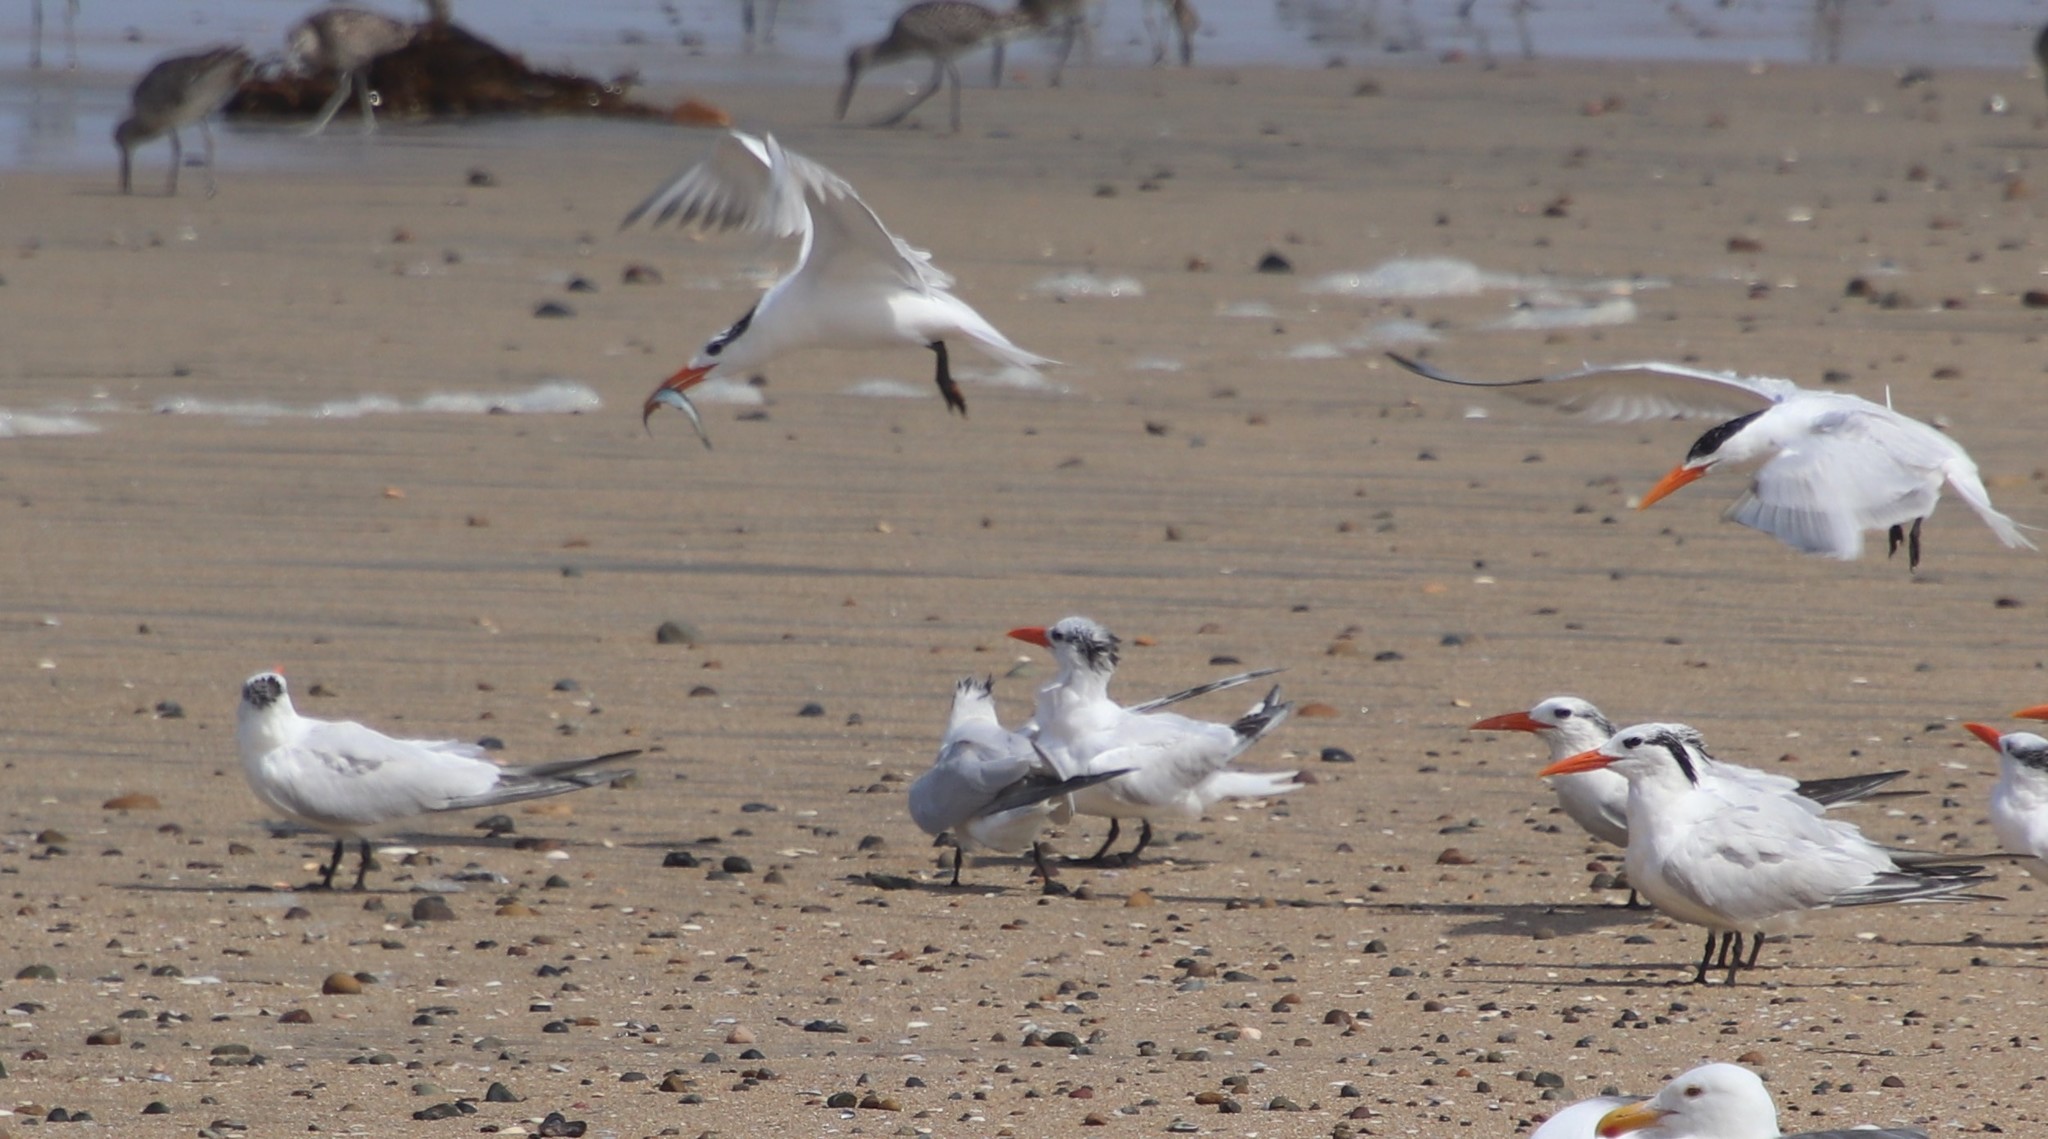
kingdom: Animalia
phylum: Chordata
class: Aves
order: Charadriiformes
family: Laridae
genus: Thalasseus
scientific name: Thalasseus maximus
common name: Royal tern
